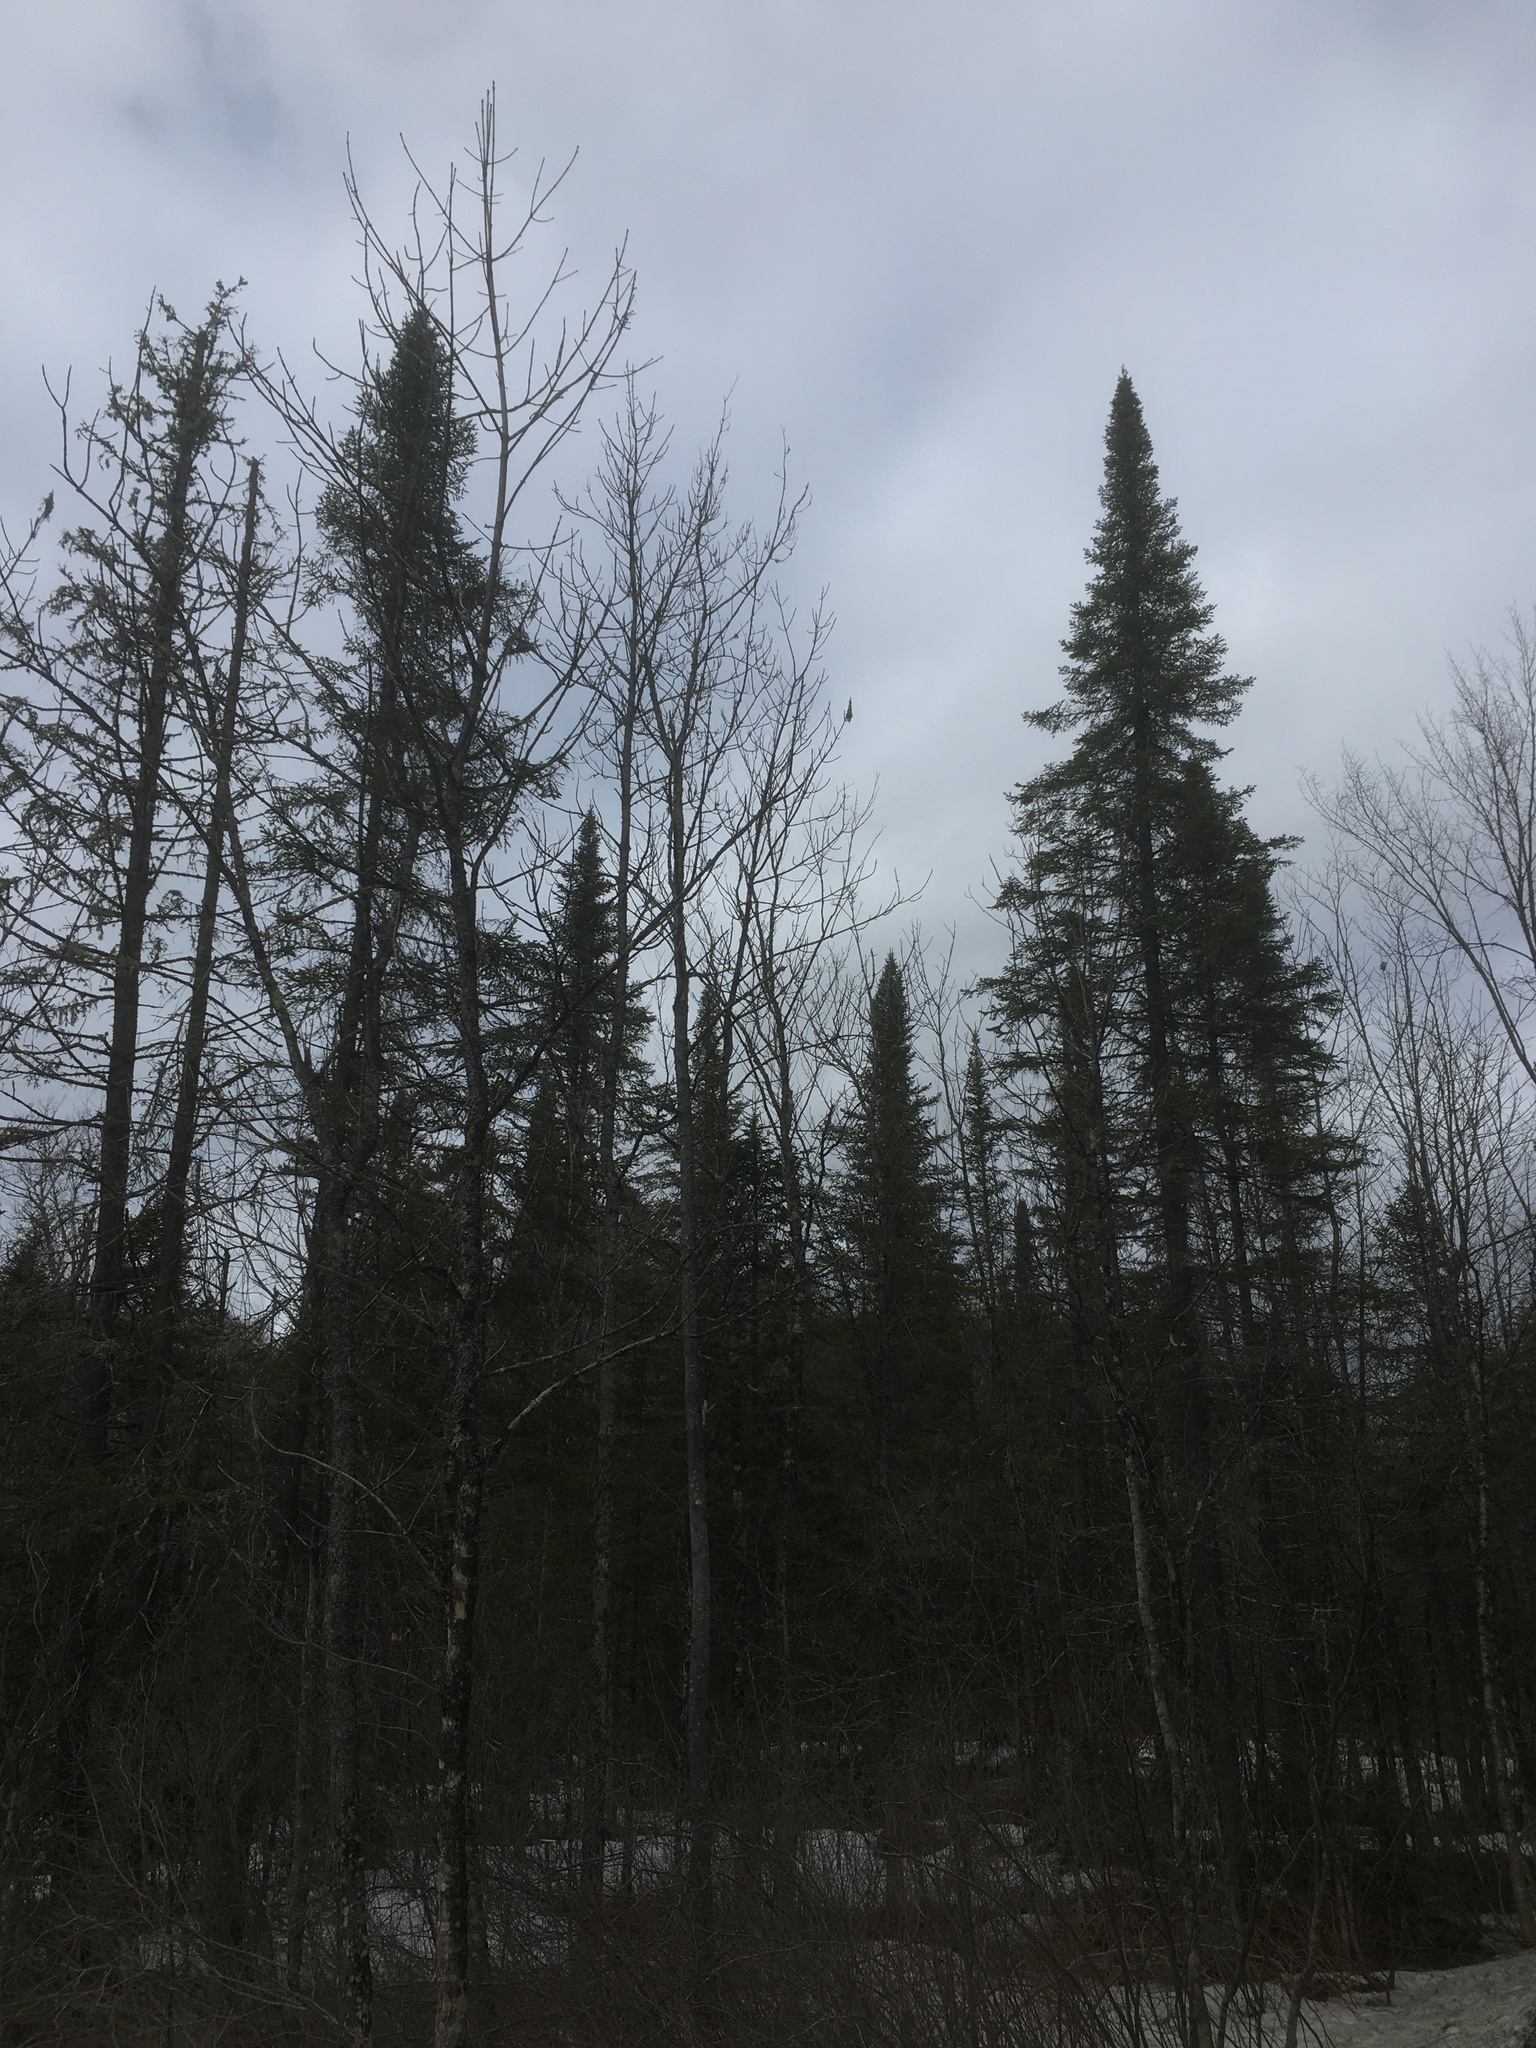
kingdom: Plantae
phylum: Tracheophyta
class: Pinopsida
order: Pinales
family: Pinaceae
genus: Abies
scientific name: Abies balsamea
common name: Balsam fir
